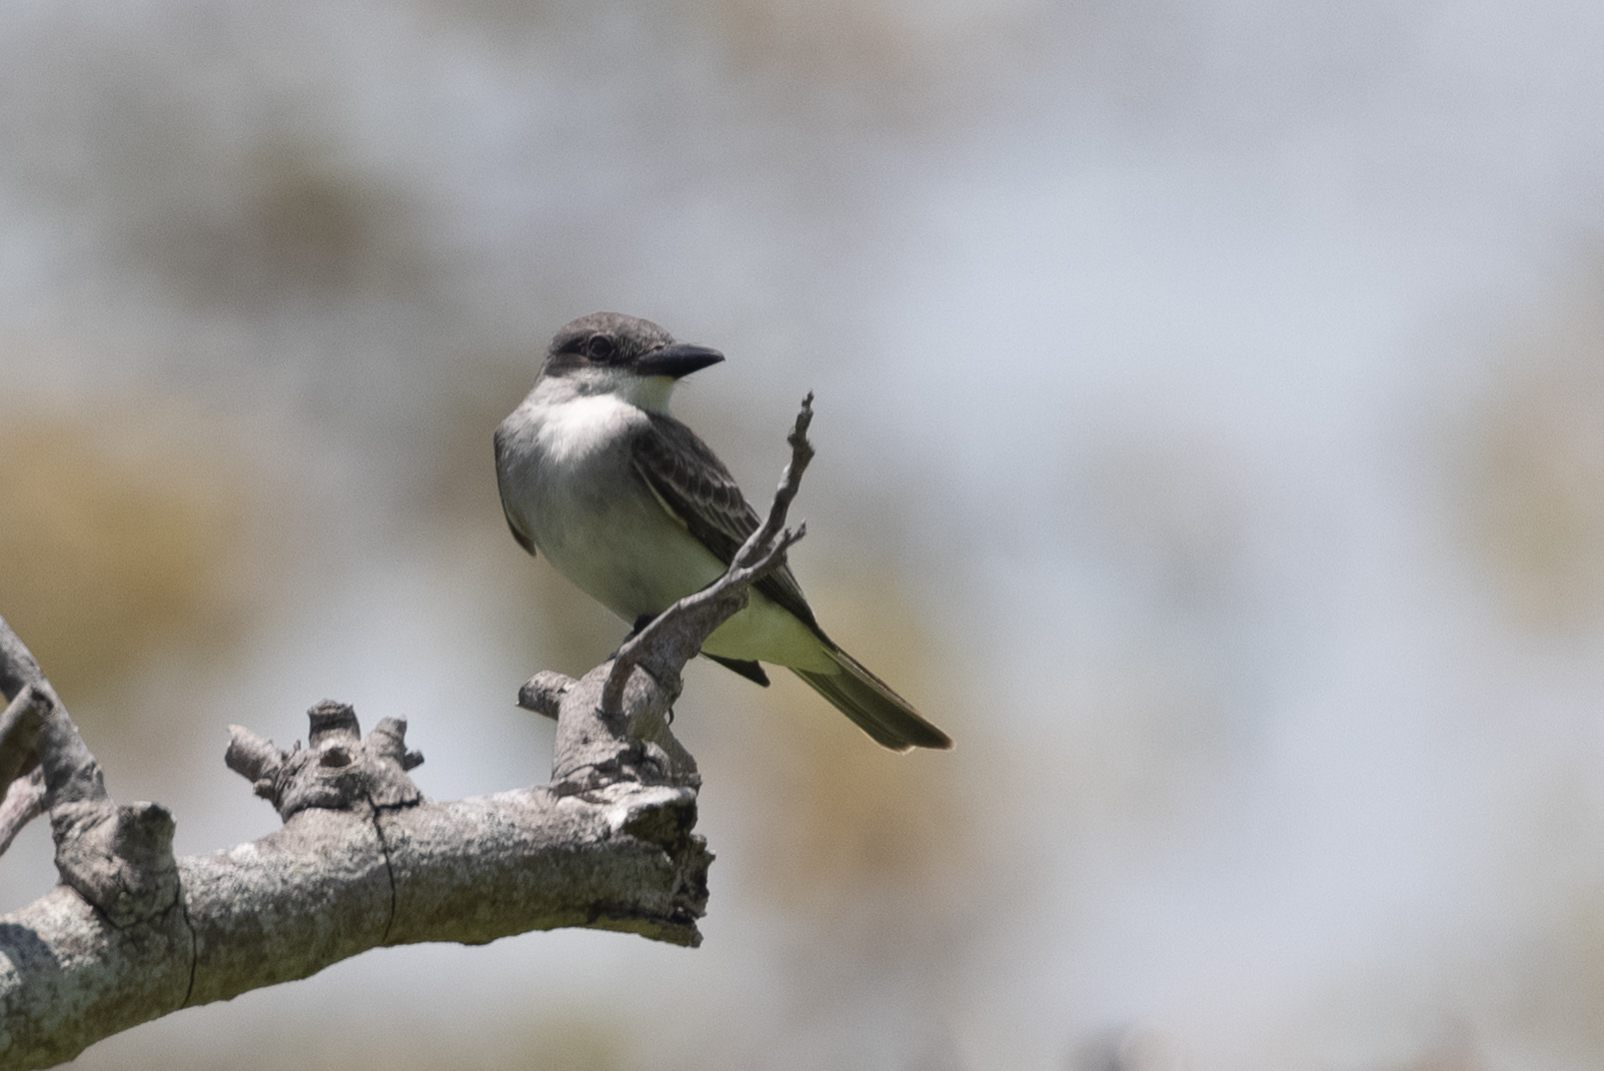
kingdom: Animalia
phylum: Chordata
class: Aves
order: Passeriformes
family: Tyrannidae
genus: Tyrannus
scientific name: Tyrannus dominicensis
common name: Gray kingbird
